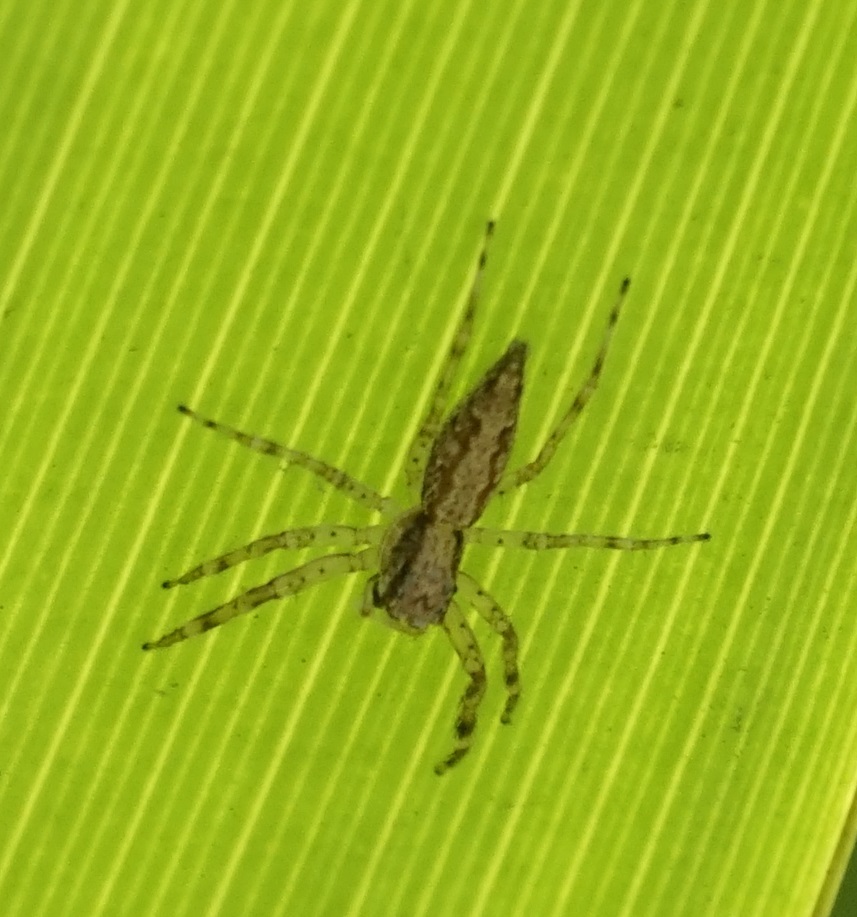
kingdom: Animalia
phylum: Arthropoda
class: Arachnida
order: Araneae
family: Salticidae
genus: Helpis
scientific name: Helpis minitabunda
